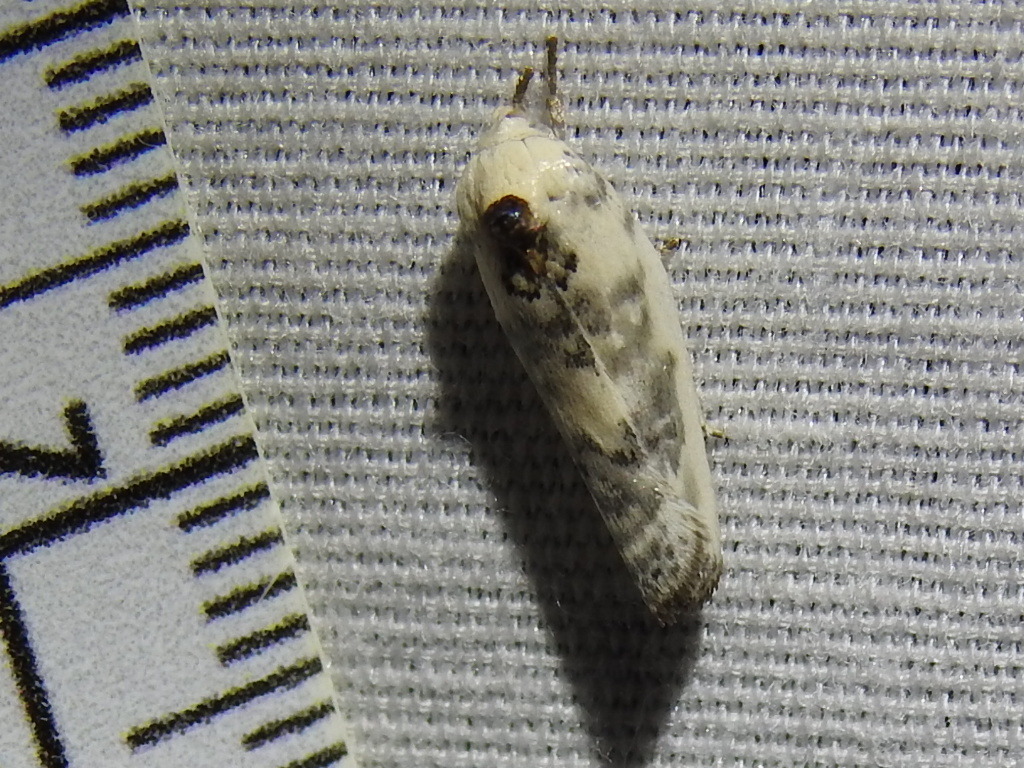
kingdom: Animalia
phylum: Arthropoda
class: Insecta
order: Lepidoptera
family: Depressariidae
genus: Antaeotricha
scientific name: Antaeotricha leucillana
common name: Pale gray bird-dropping moth
